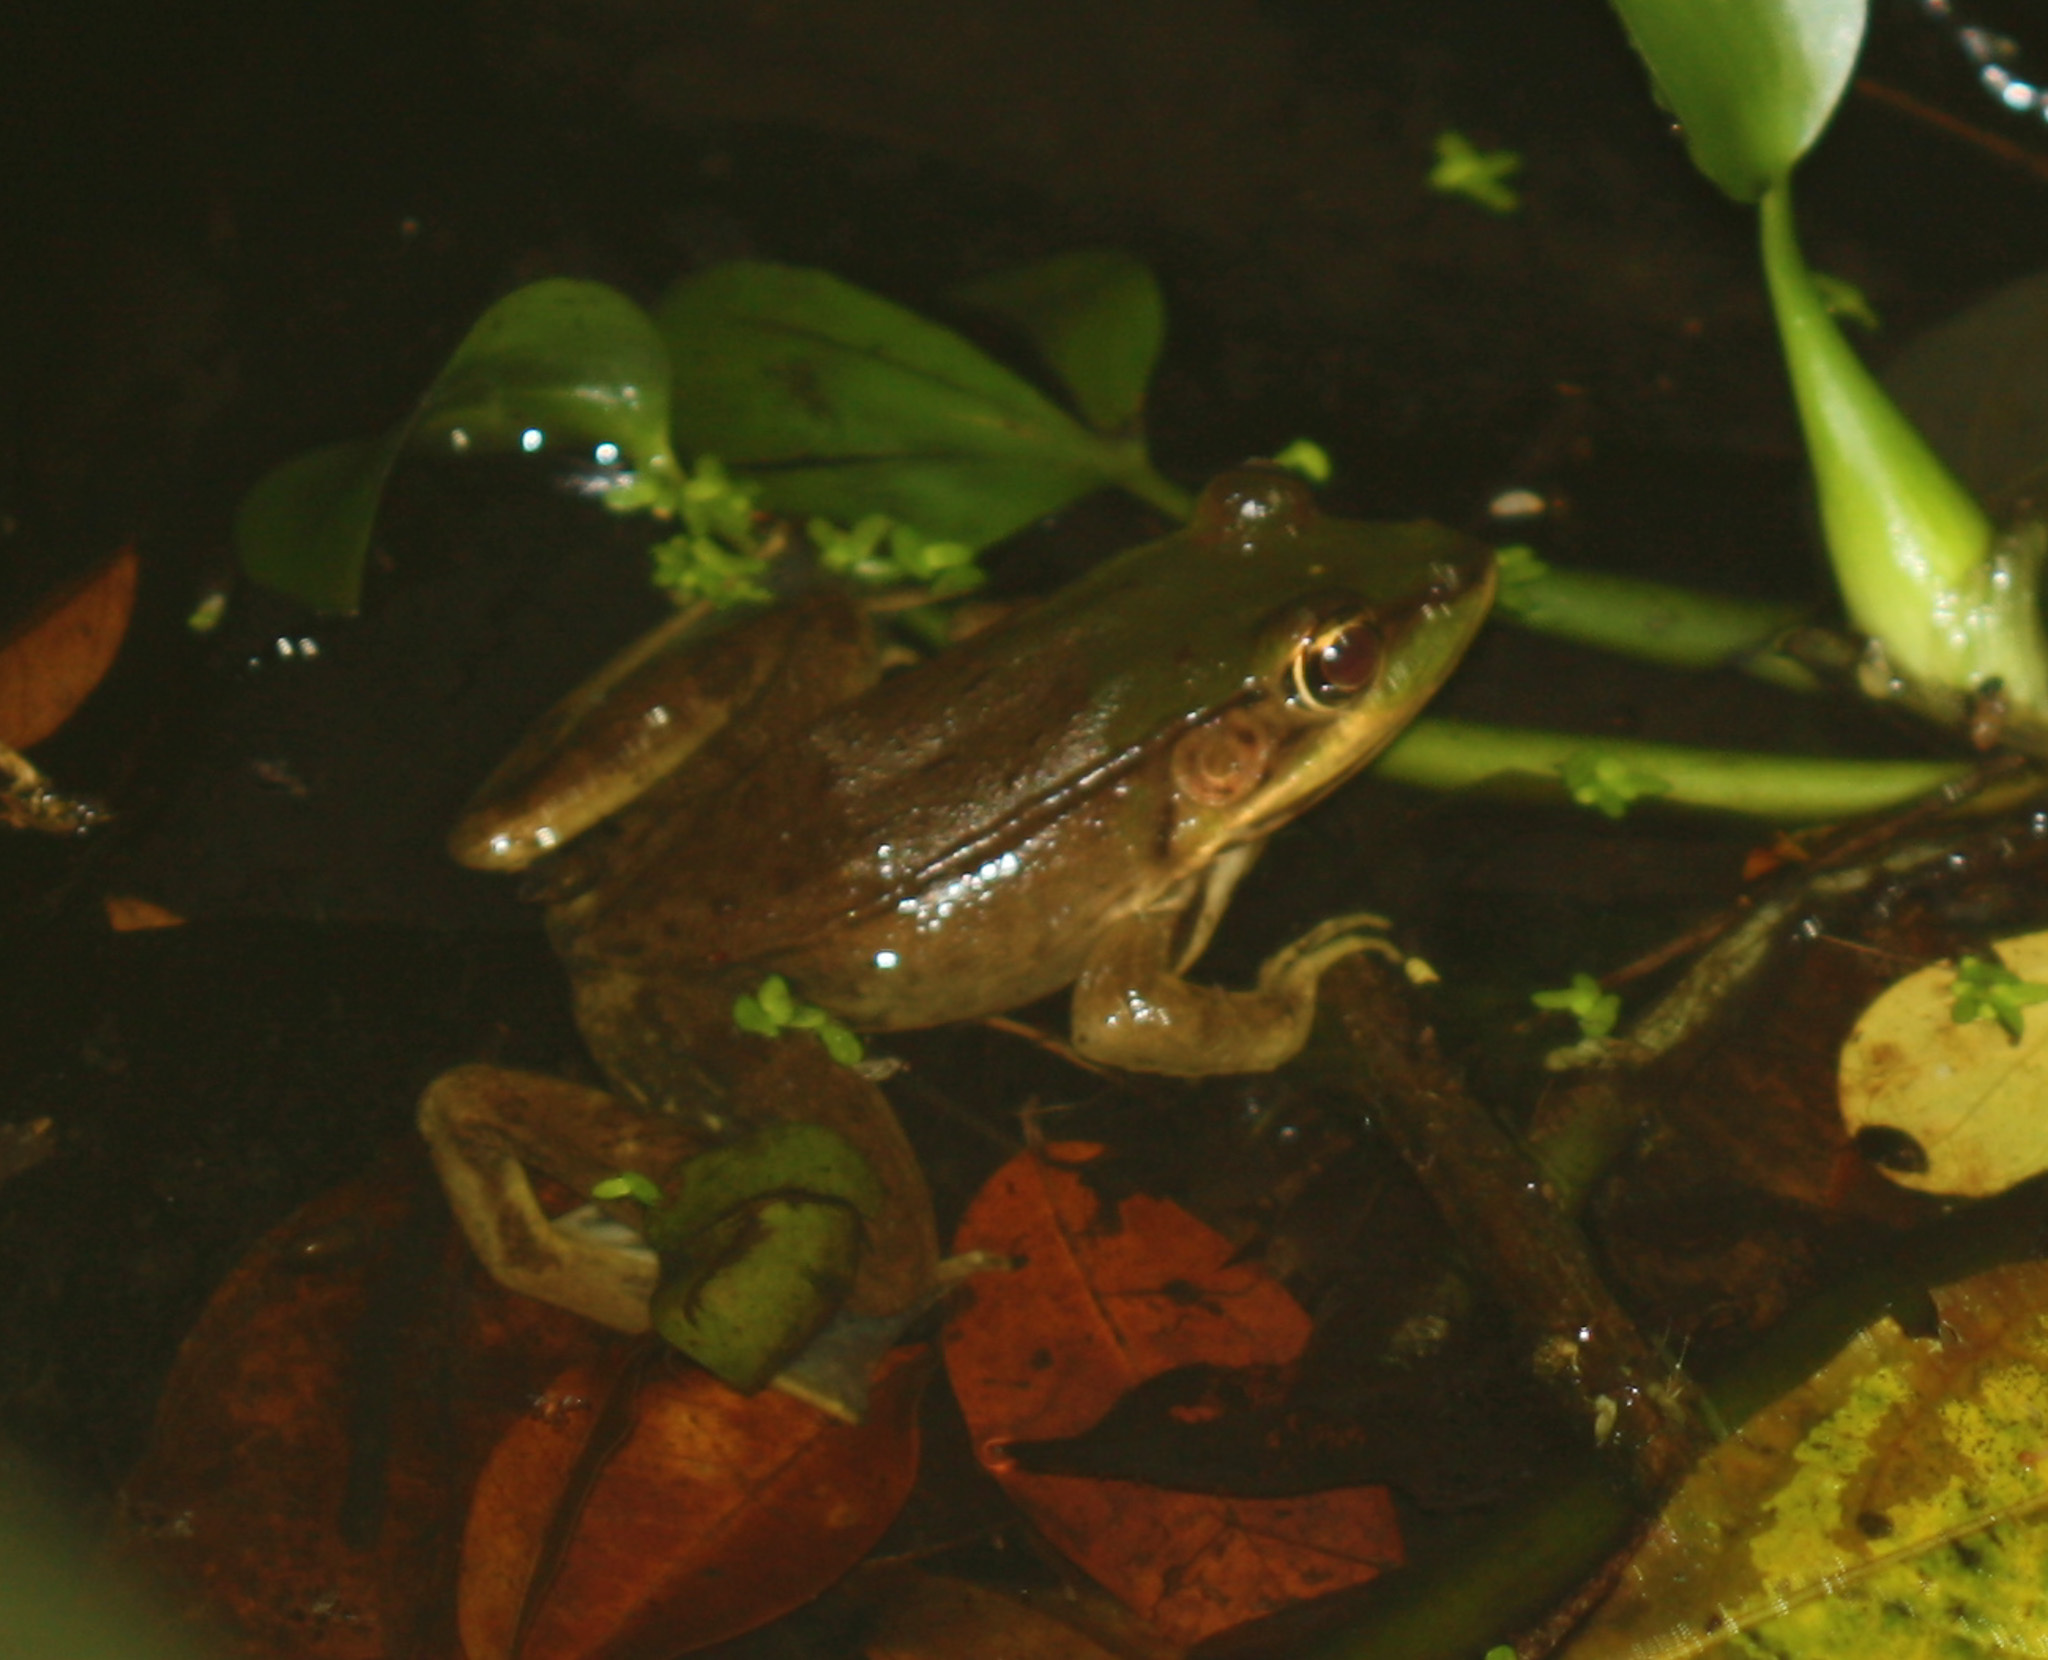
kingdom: Animalia
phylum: Chordata
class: Amphibia
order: Anura
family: Ranidae
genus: Lithobates
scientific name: Lithobates vaillanti
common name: Vaillant's frog
